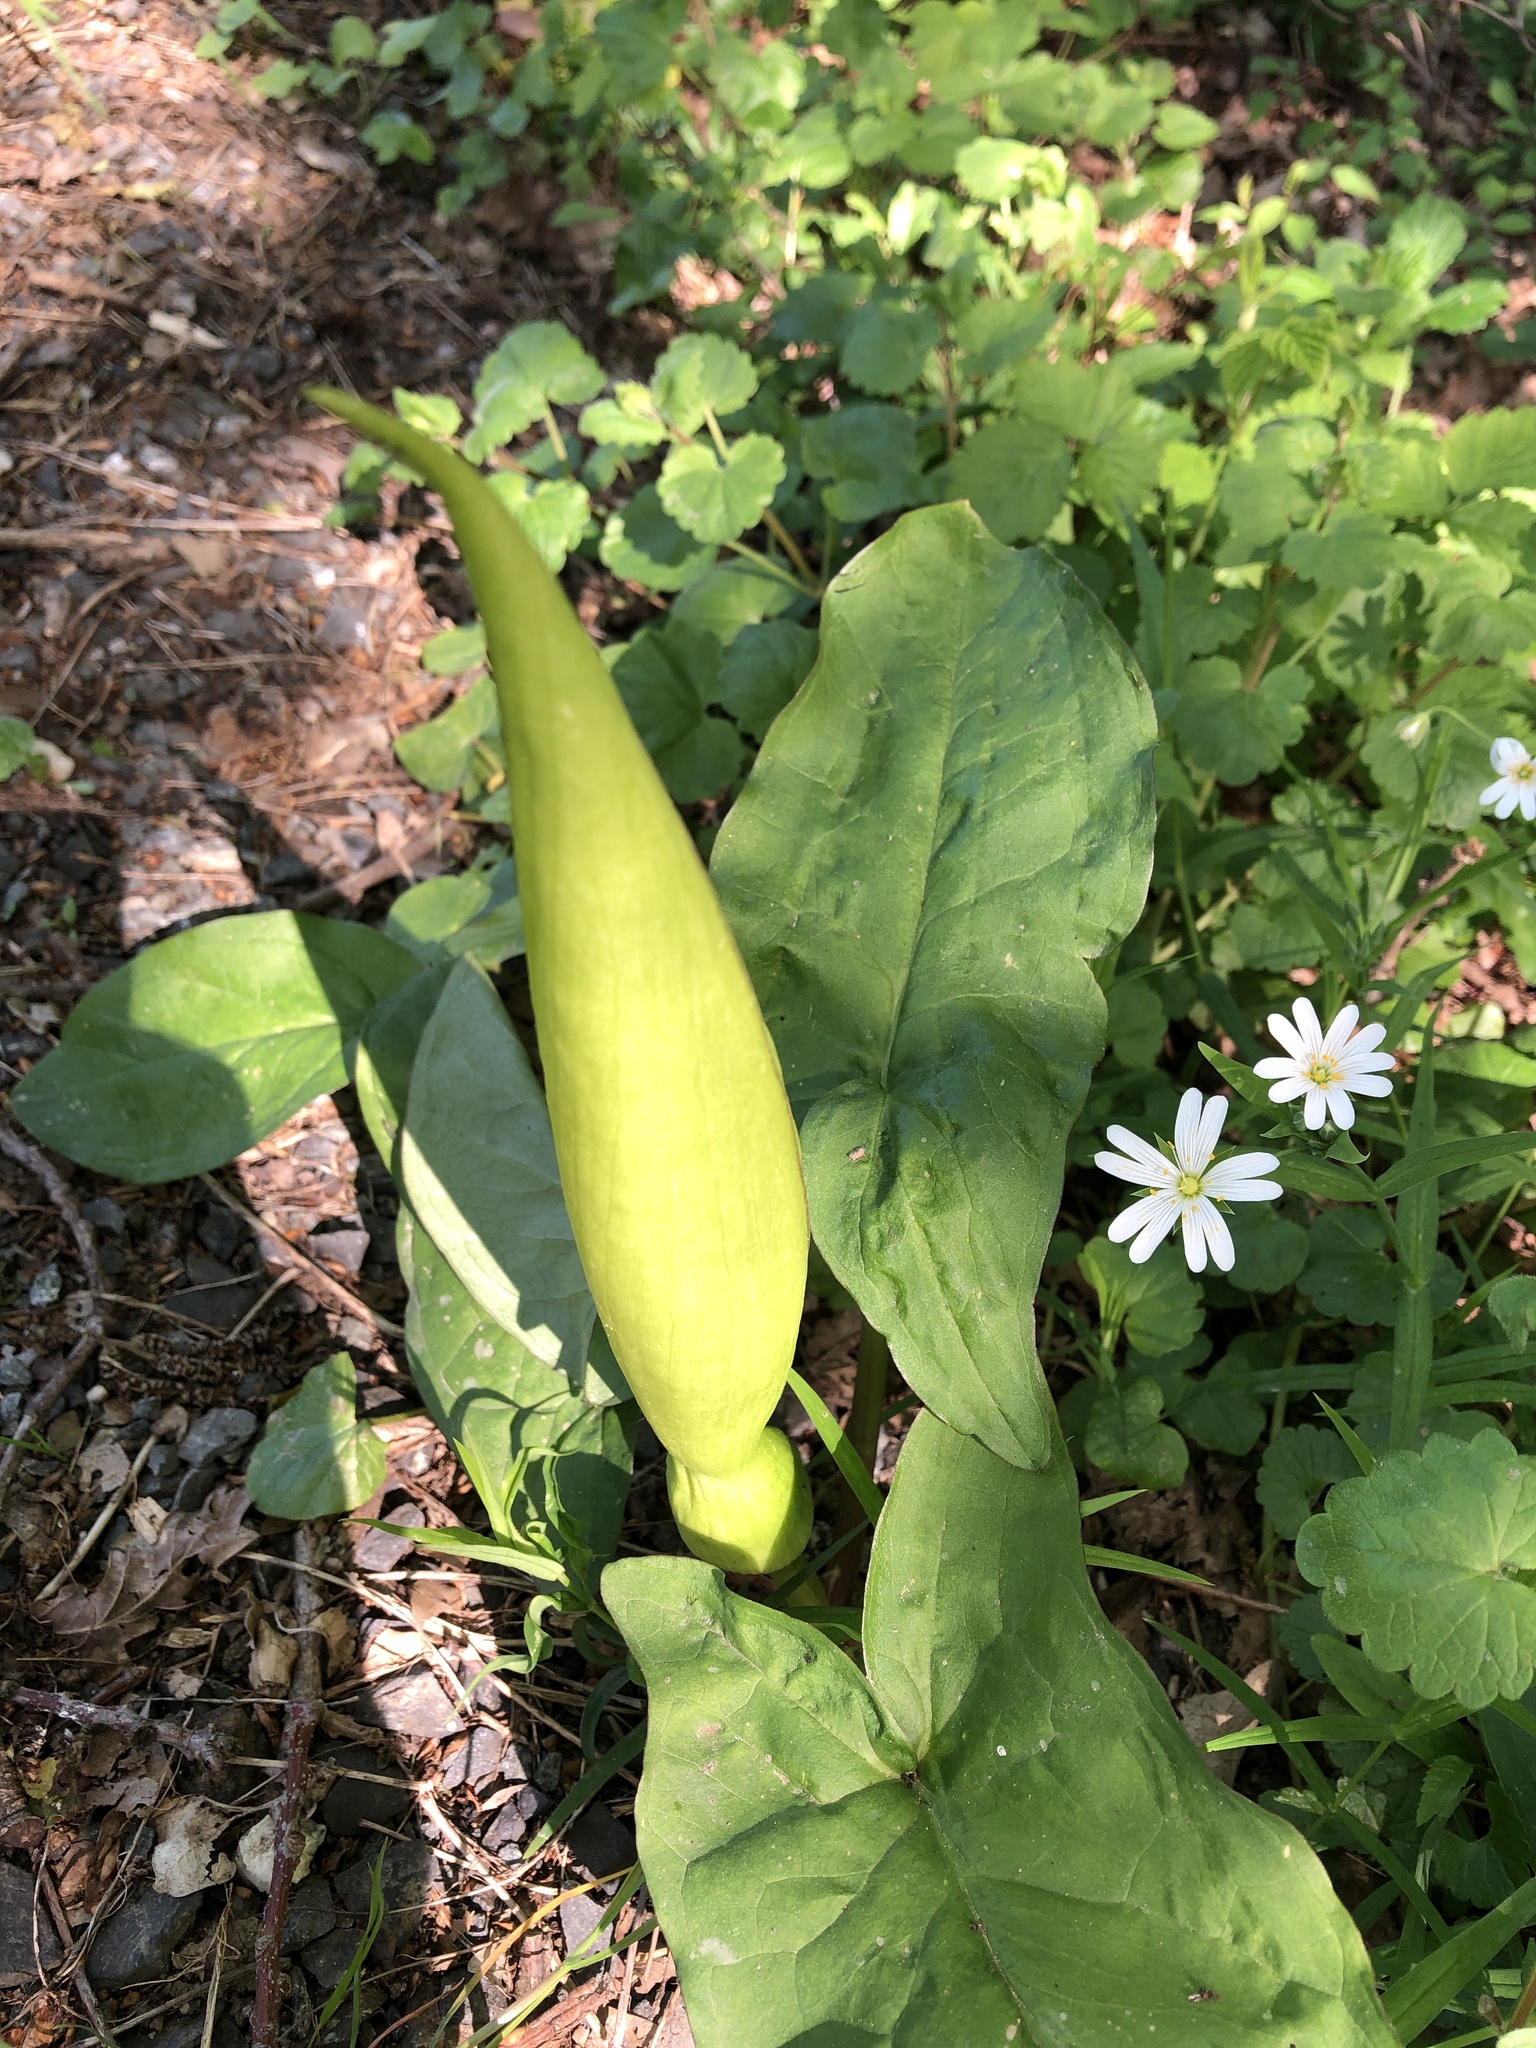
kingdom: Plantae
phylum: Tracheophyta
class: Liliopsida
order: Alismatales
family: Araceae
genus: Arum
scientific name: Arum maculatum
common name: Lords-and-ladies
